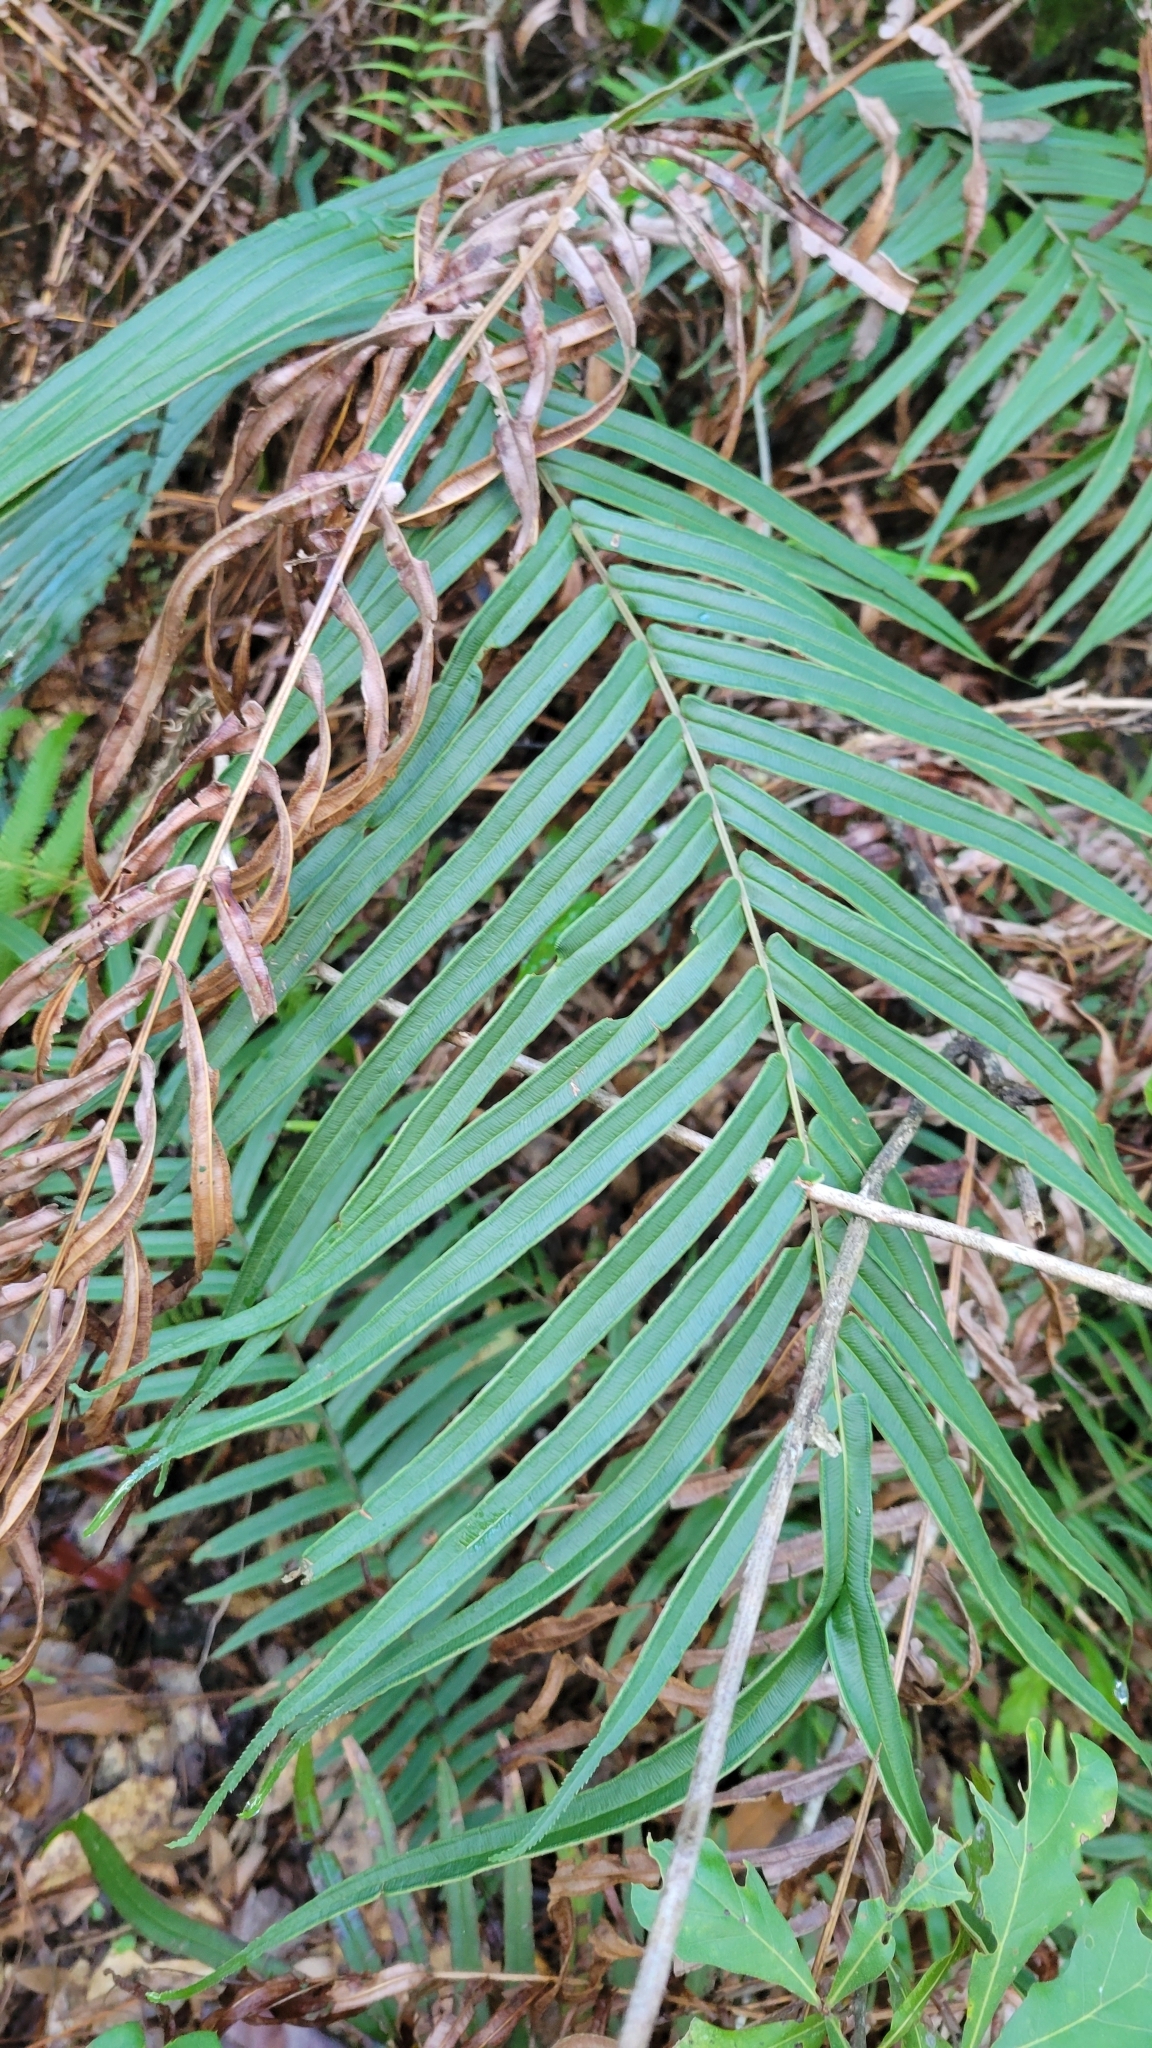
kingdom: Plantae
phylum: Tracheophyta
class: Polypodiopsida
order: Polypodiales
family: Pteridaceae
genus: Pteris
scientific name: Pteris vittata
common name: Ladder brake
